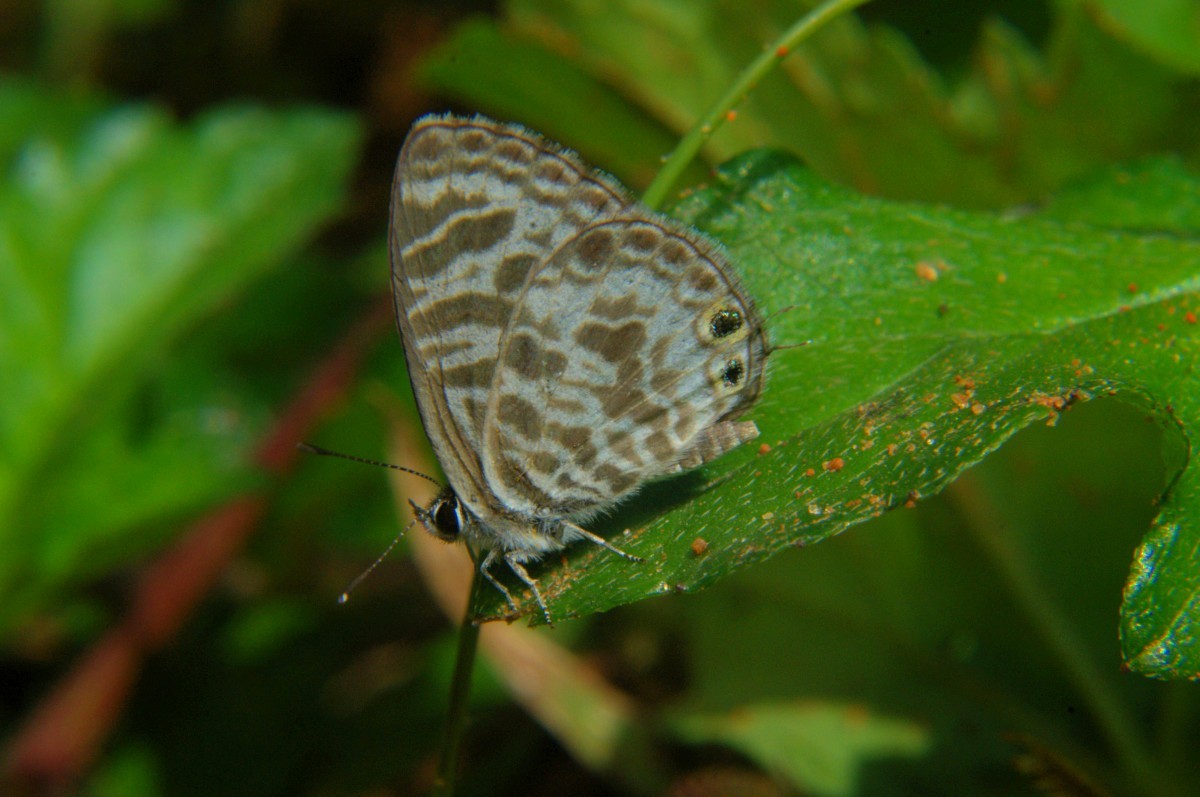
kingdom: Animalia
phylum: Arthropoda
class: Insecta
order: Lepidoptera
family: Lycaenidae
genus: Leptotes
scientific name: Leptotes plinius
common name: Zebra blue
